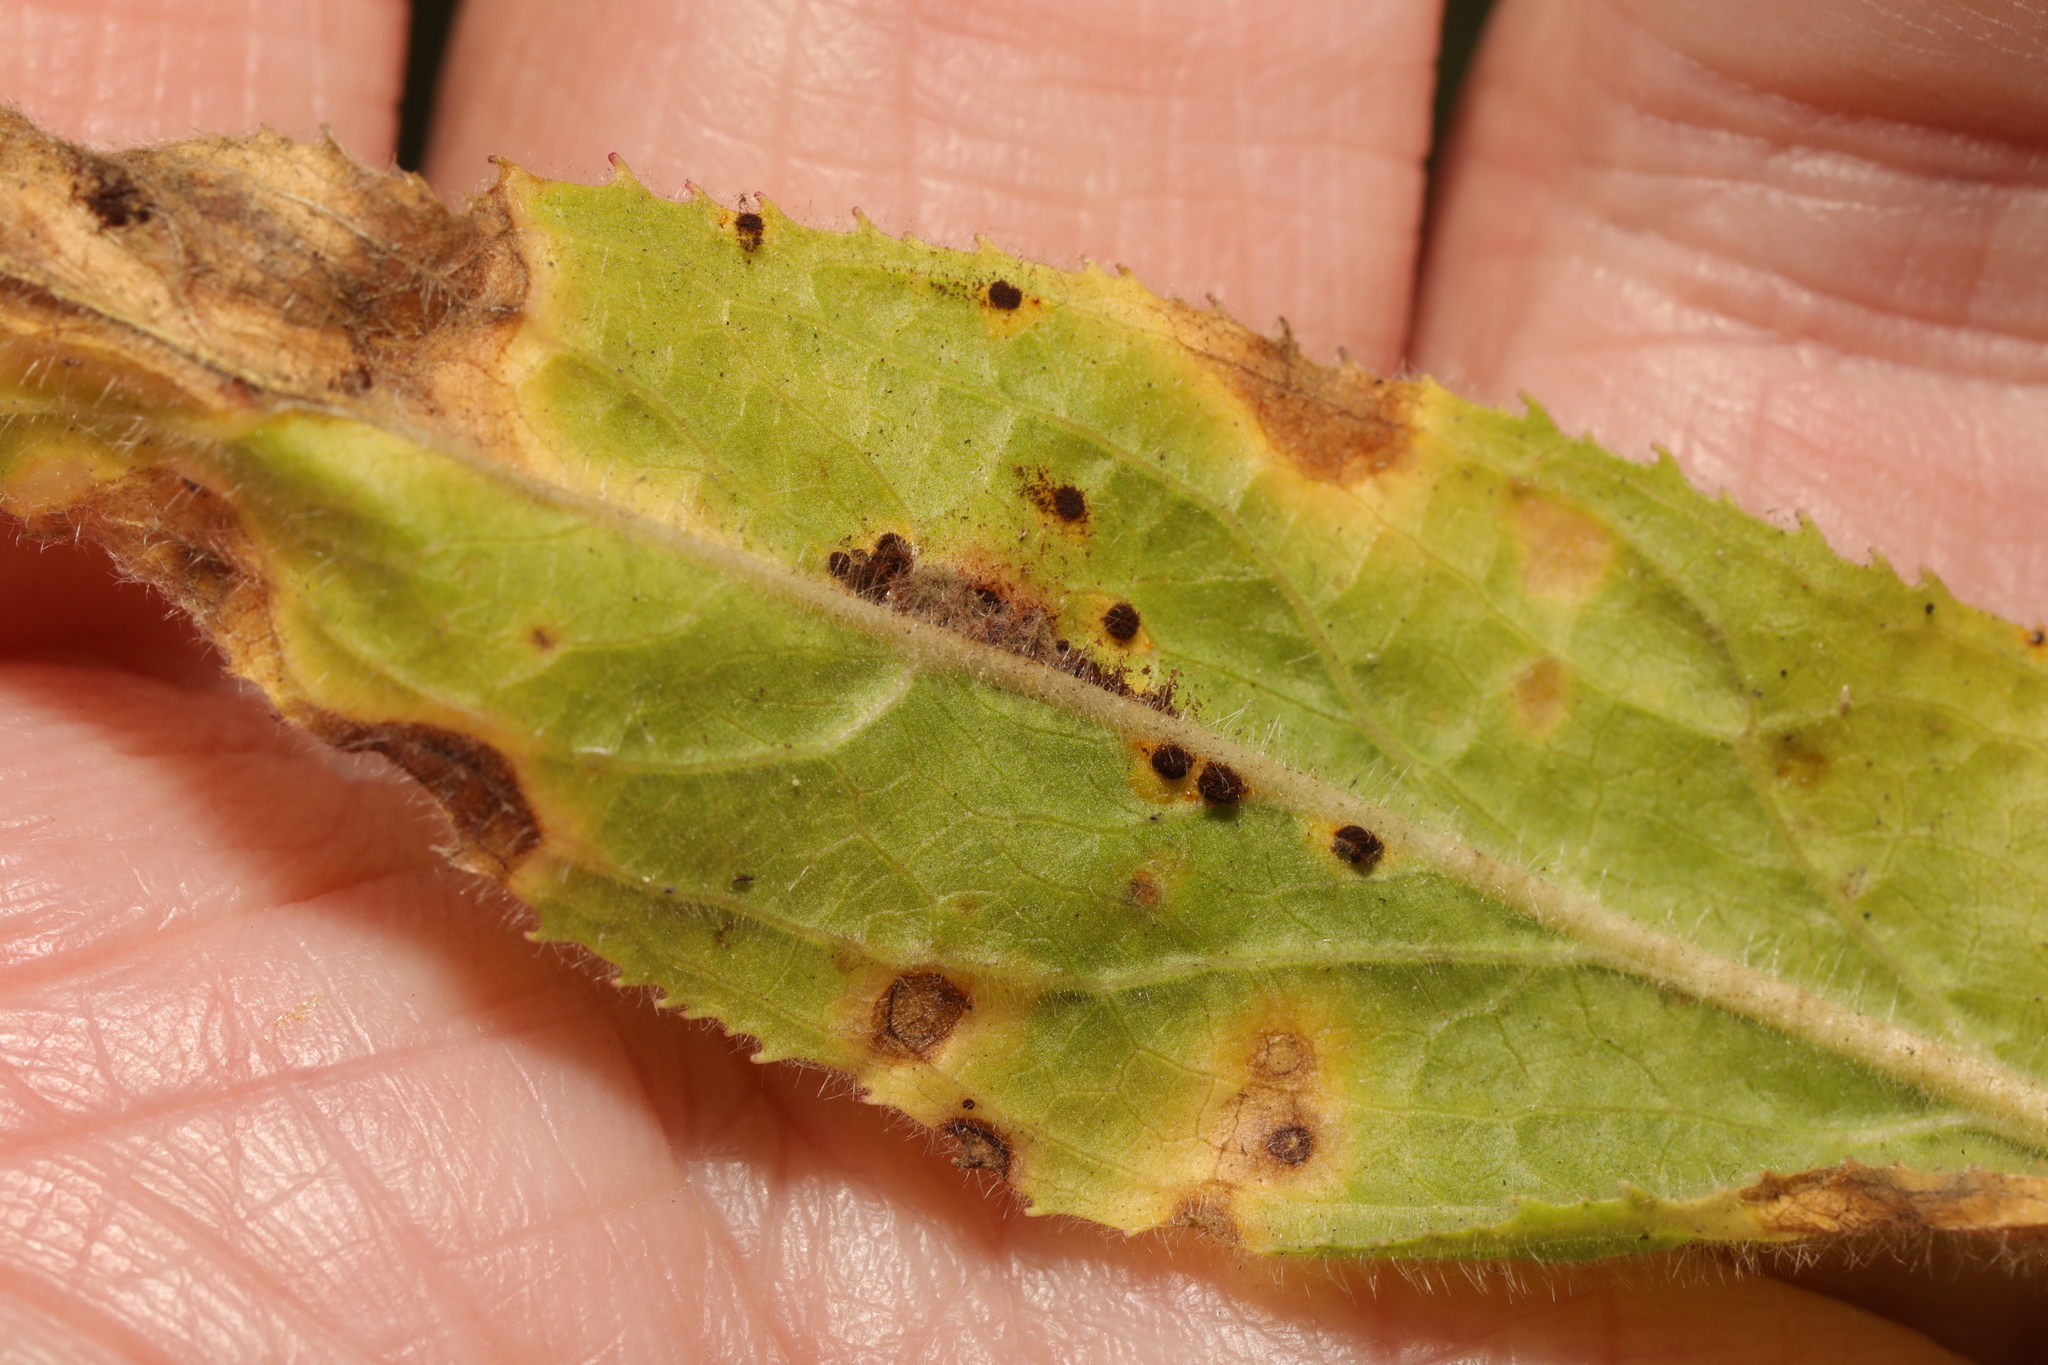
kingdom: Fungi
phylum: Basidiomycota
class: Pucciniomycetes
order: Pucciniales
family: Pucciniaceae
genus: Puccinia
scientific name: Puccinia pulverulenta
